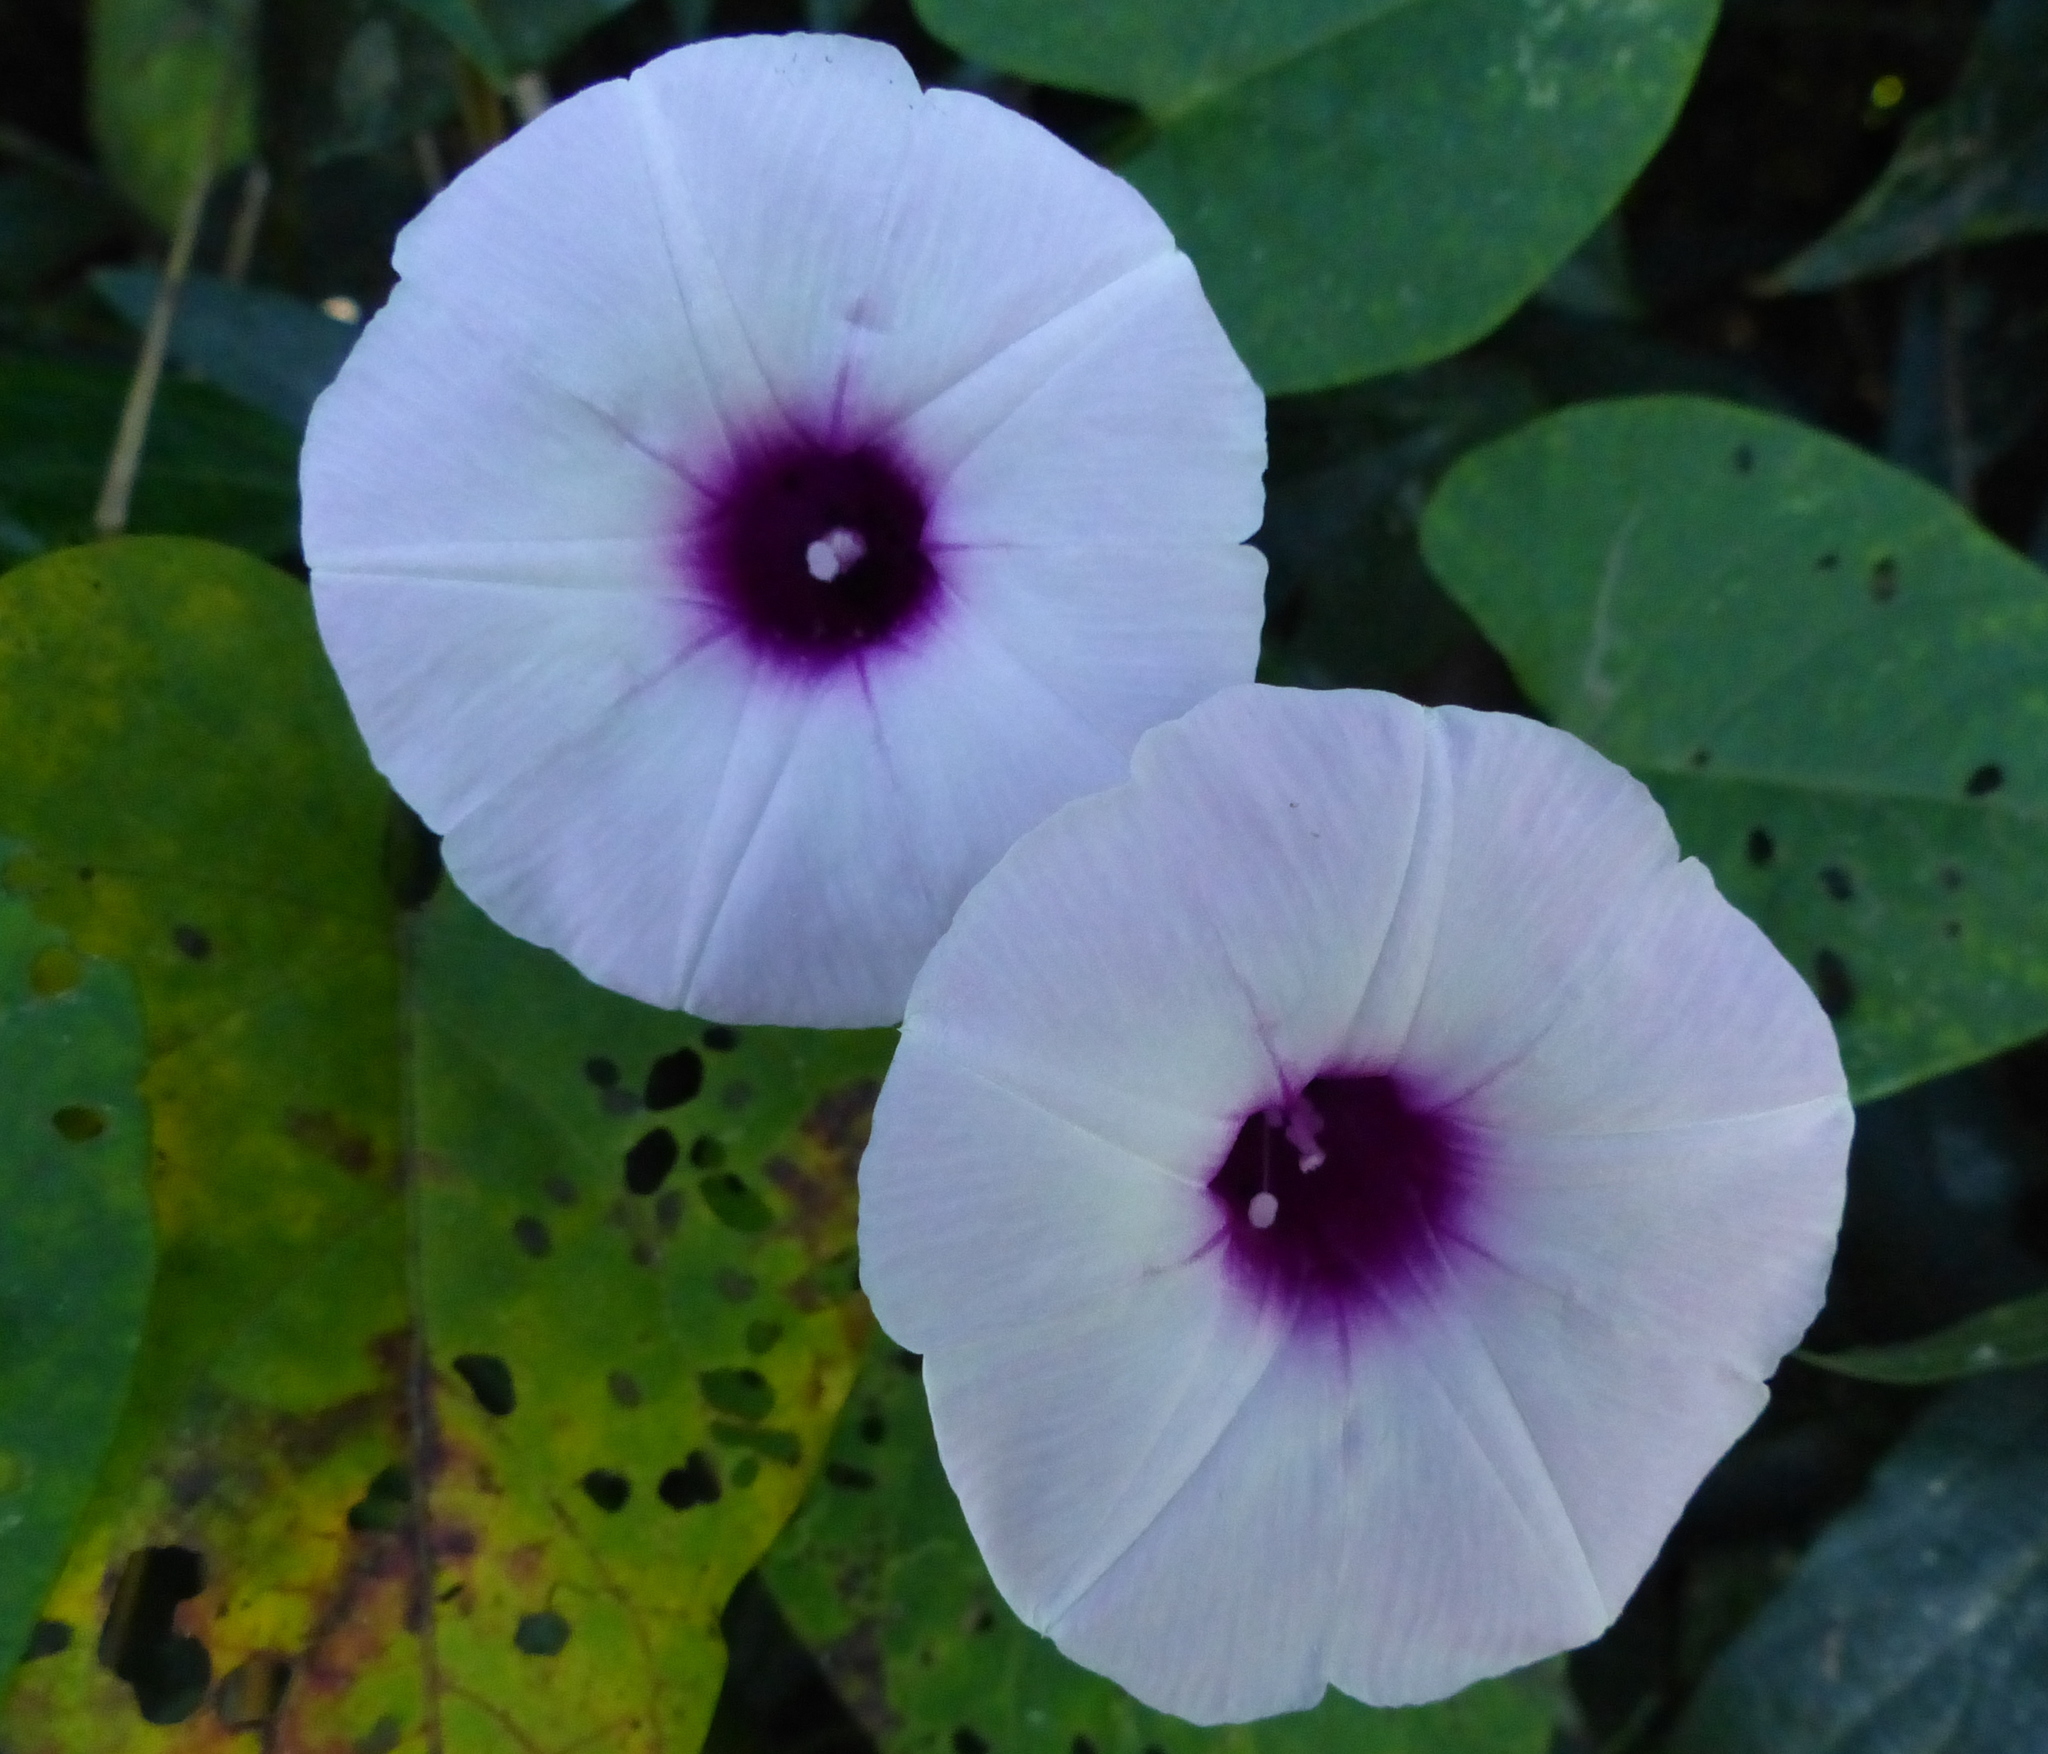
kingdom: Plantae
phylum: Tracheophyta
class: Magnoliopsida
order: Solanales
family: Convolvulaceae
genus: Ipomoea
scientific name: Ipomoea batatas
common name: Sweet-potato
